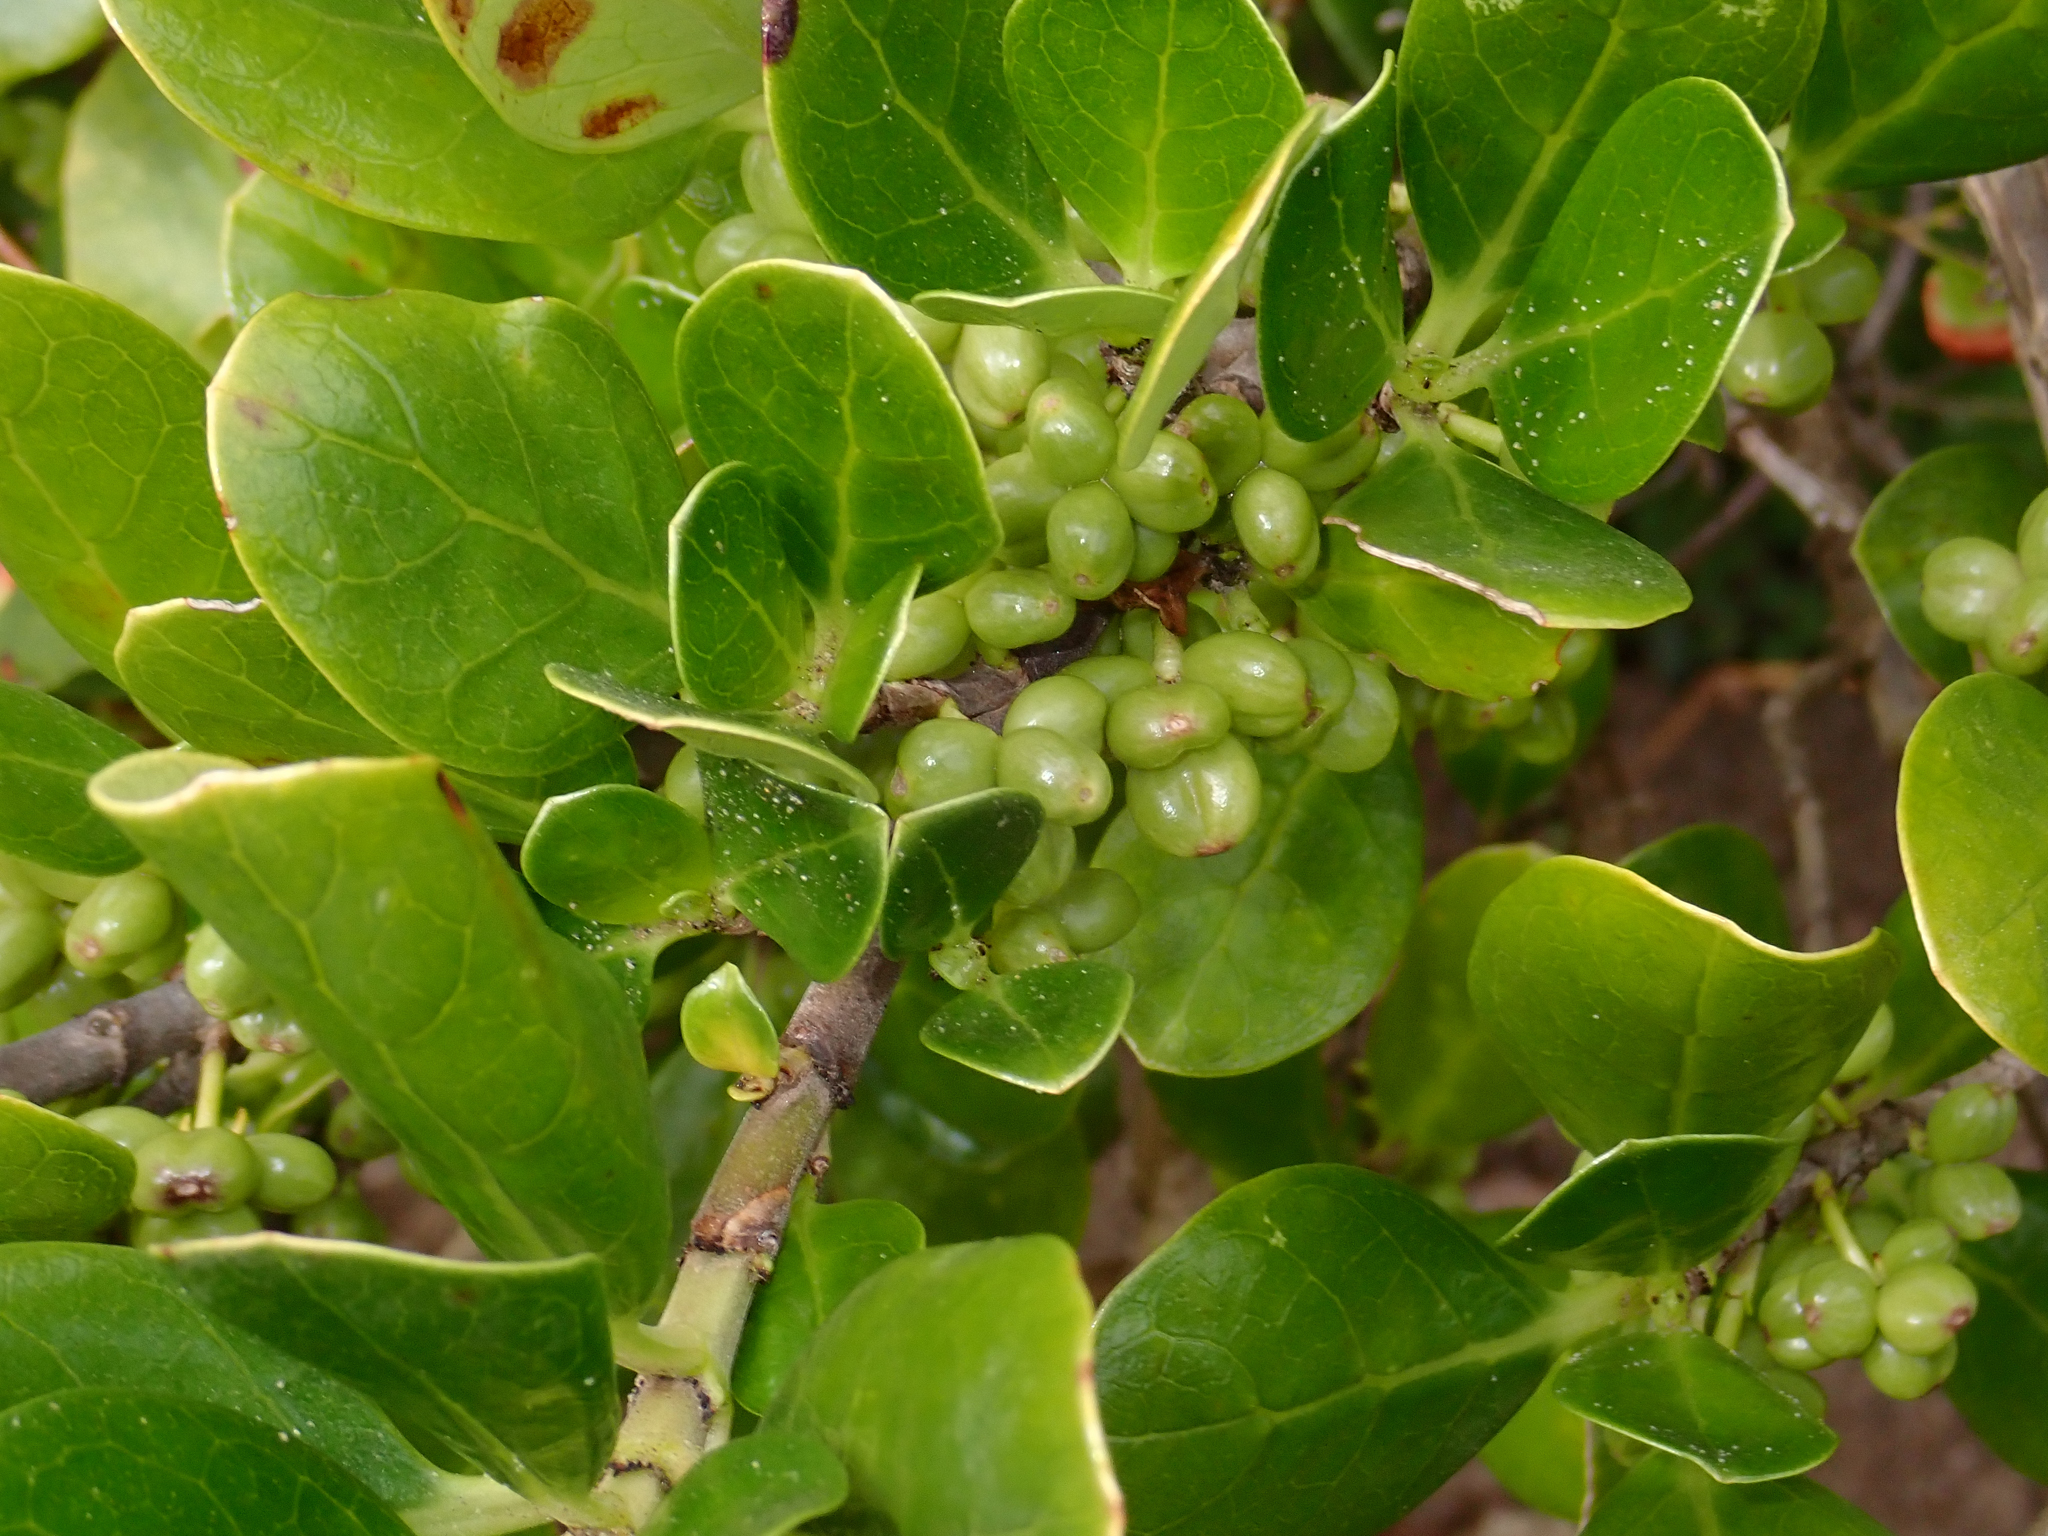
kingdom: Plantae
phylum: Tracheophyta
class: Magnoliopsida
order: Gentianales
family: Rubiaceae
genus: Coprosma
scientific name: Coprosma repens
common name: Tree bedstraw
